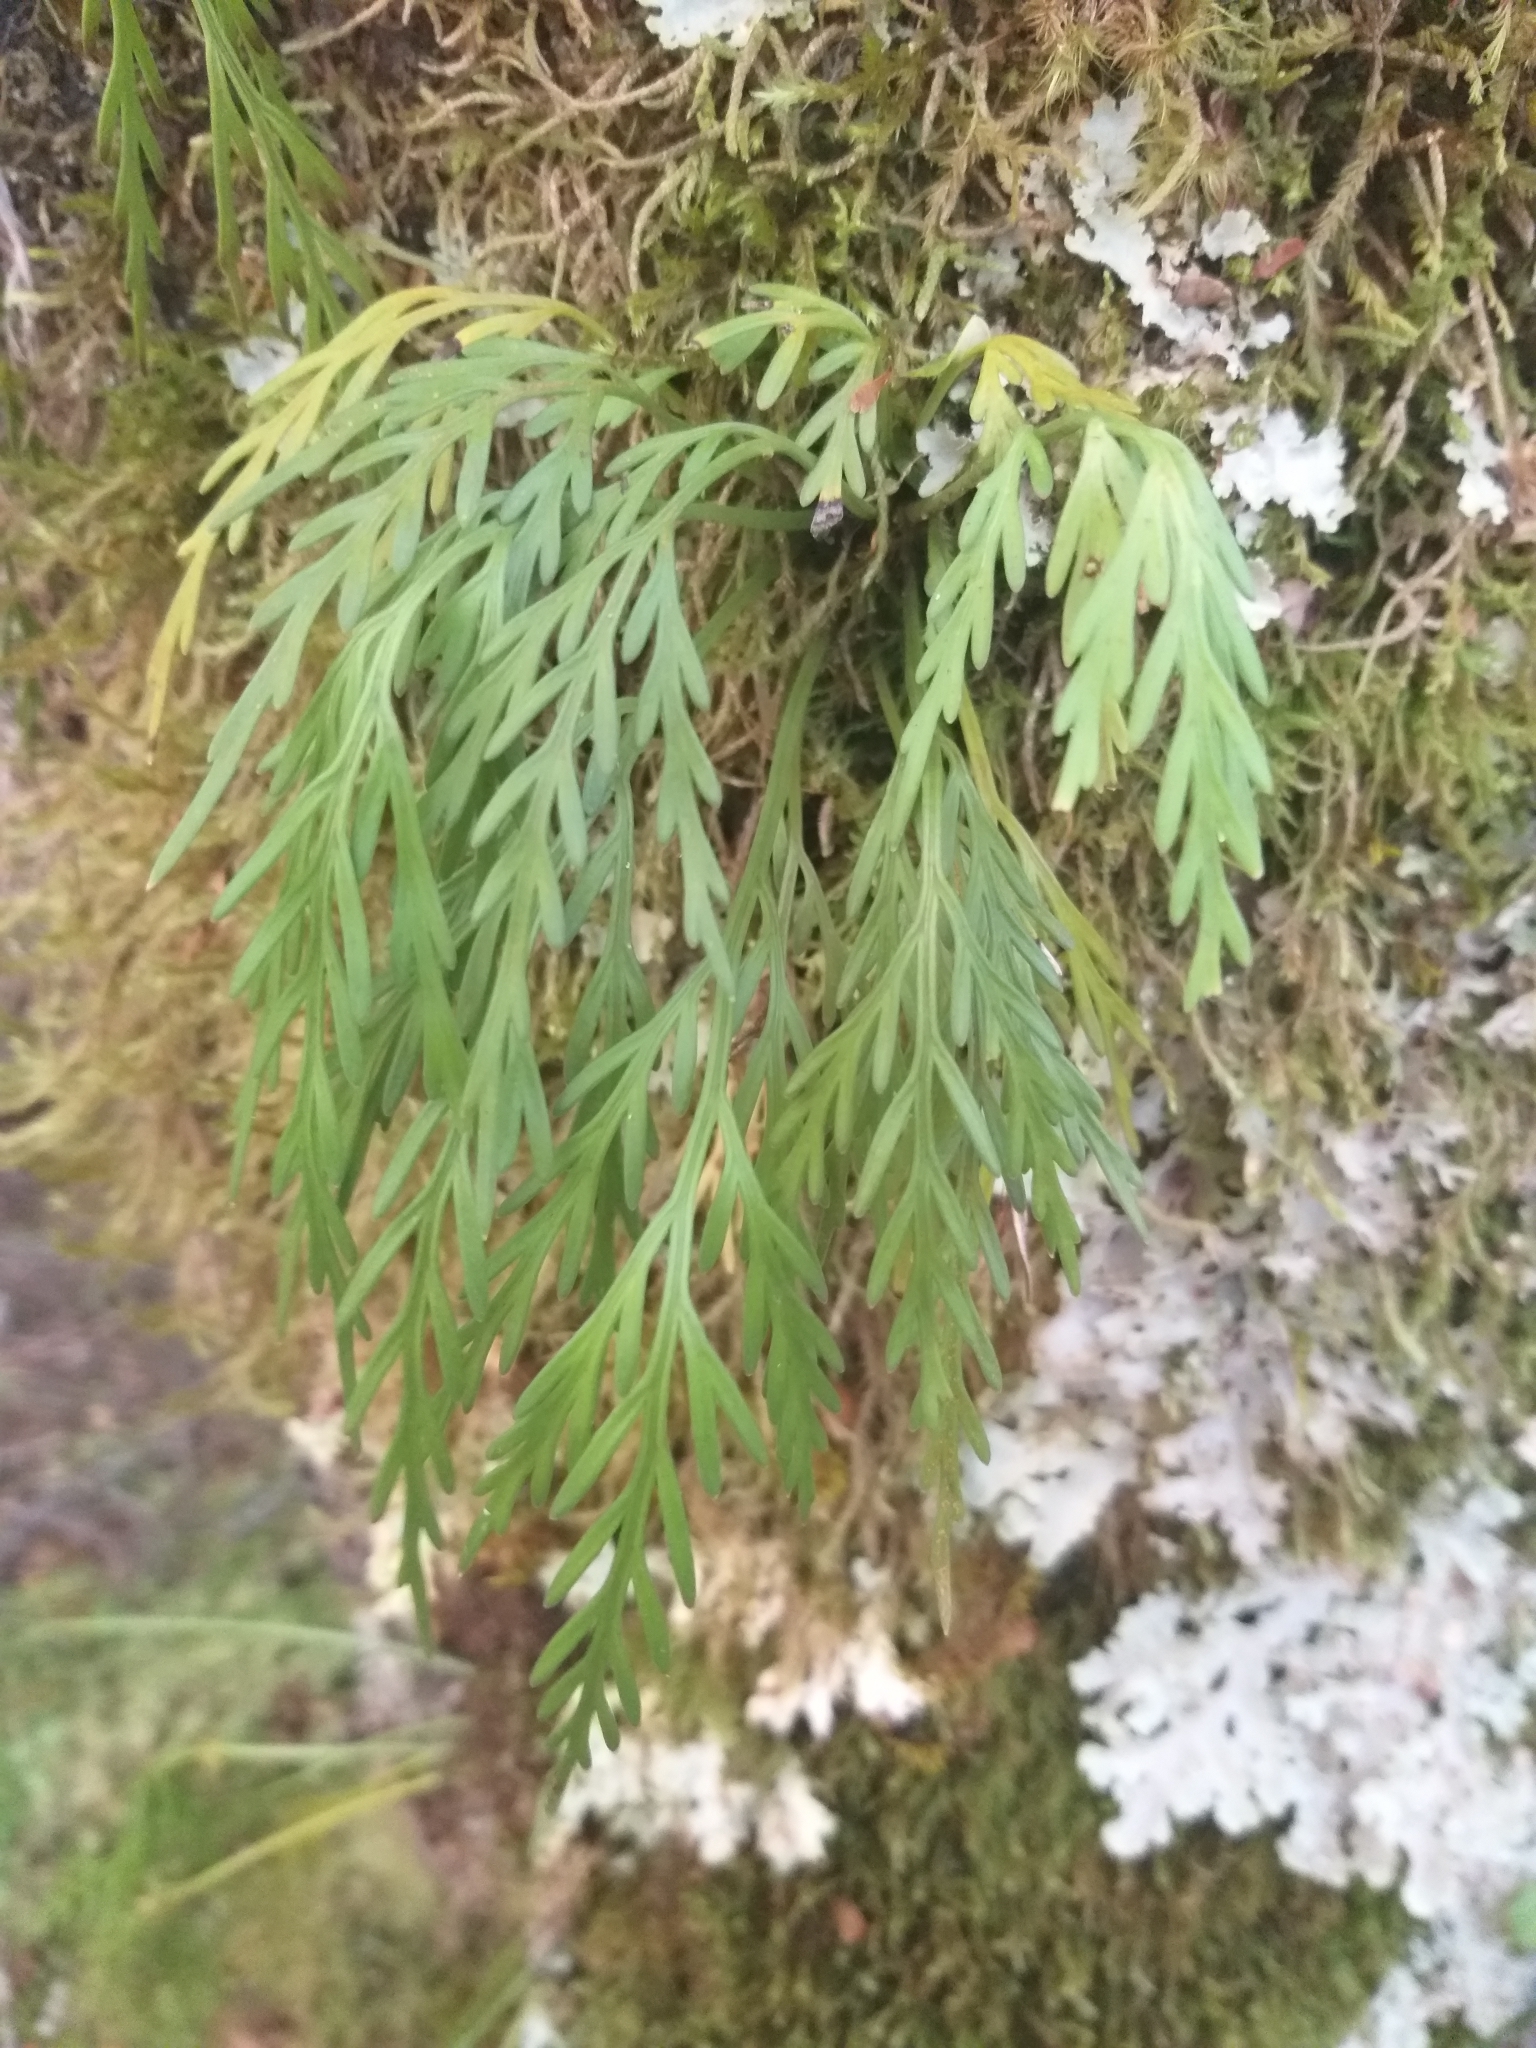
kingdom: Plantae
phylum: Tracheophyta
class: Polypodiopsida
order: Polypodiales
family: Aspleniaceae
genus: Asplenium
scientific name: Asplenium flaccidum
